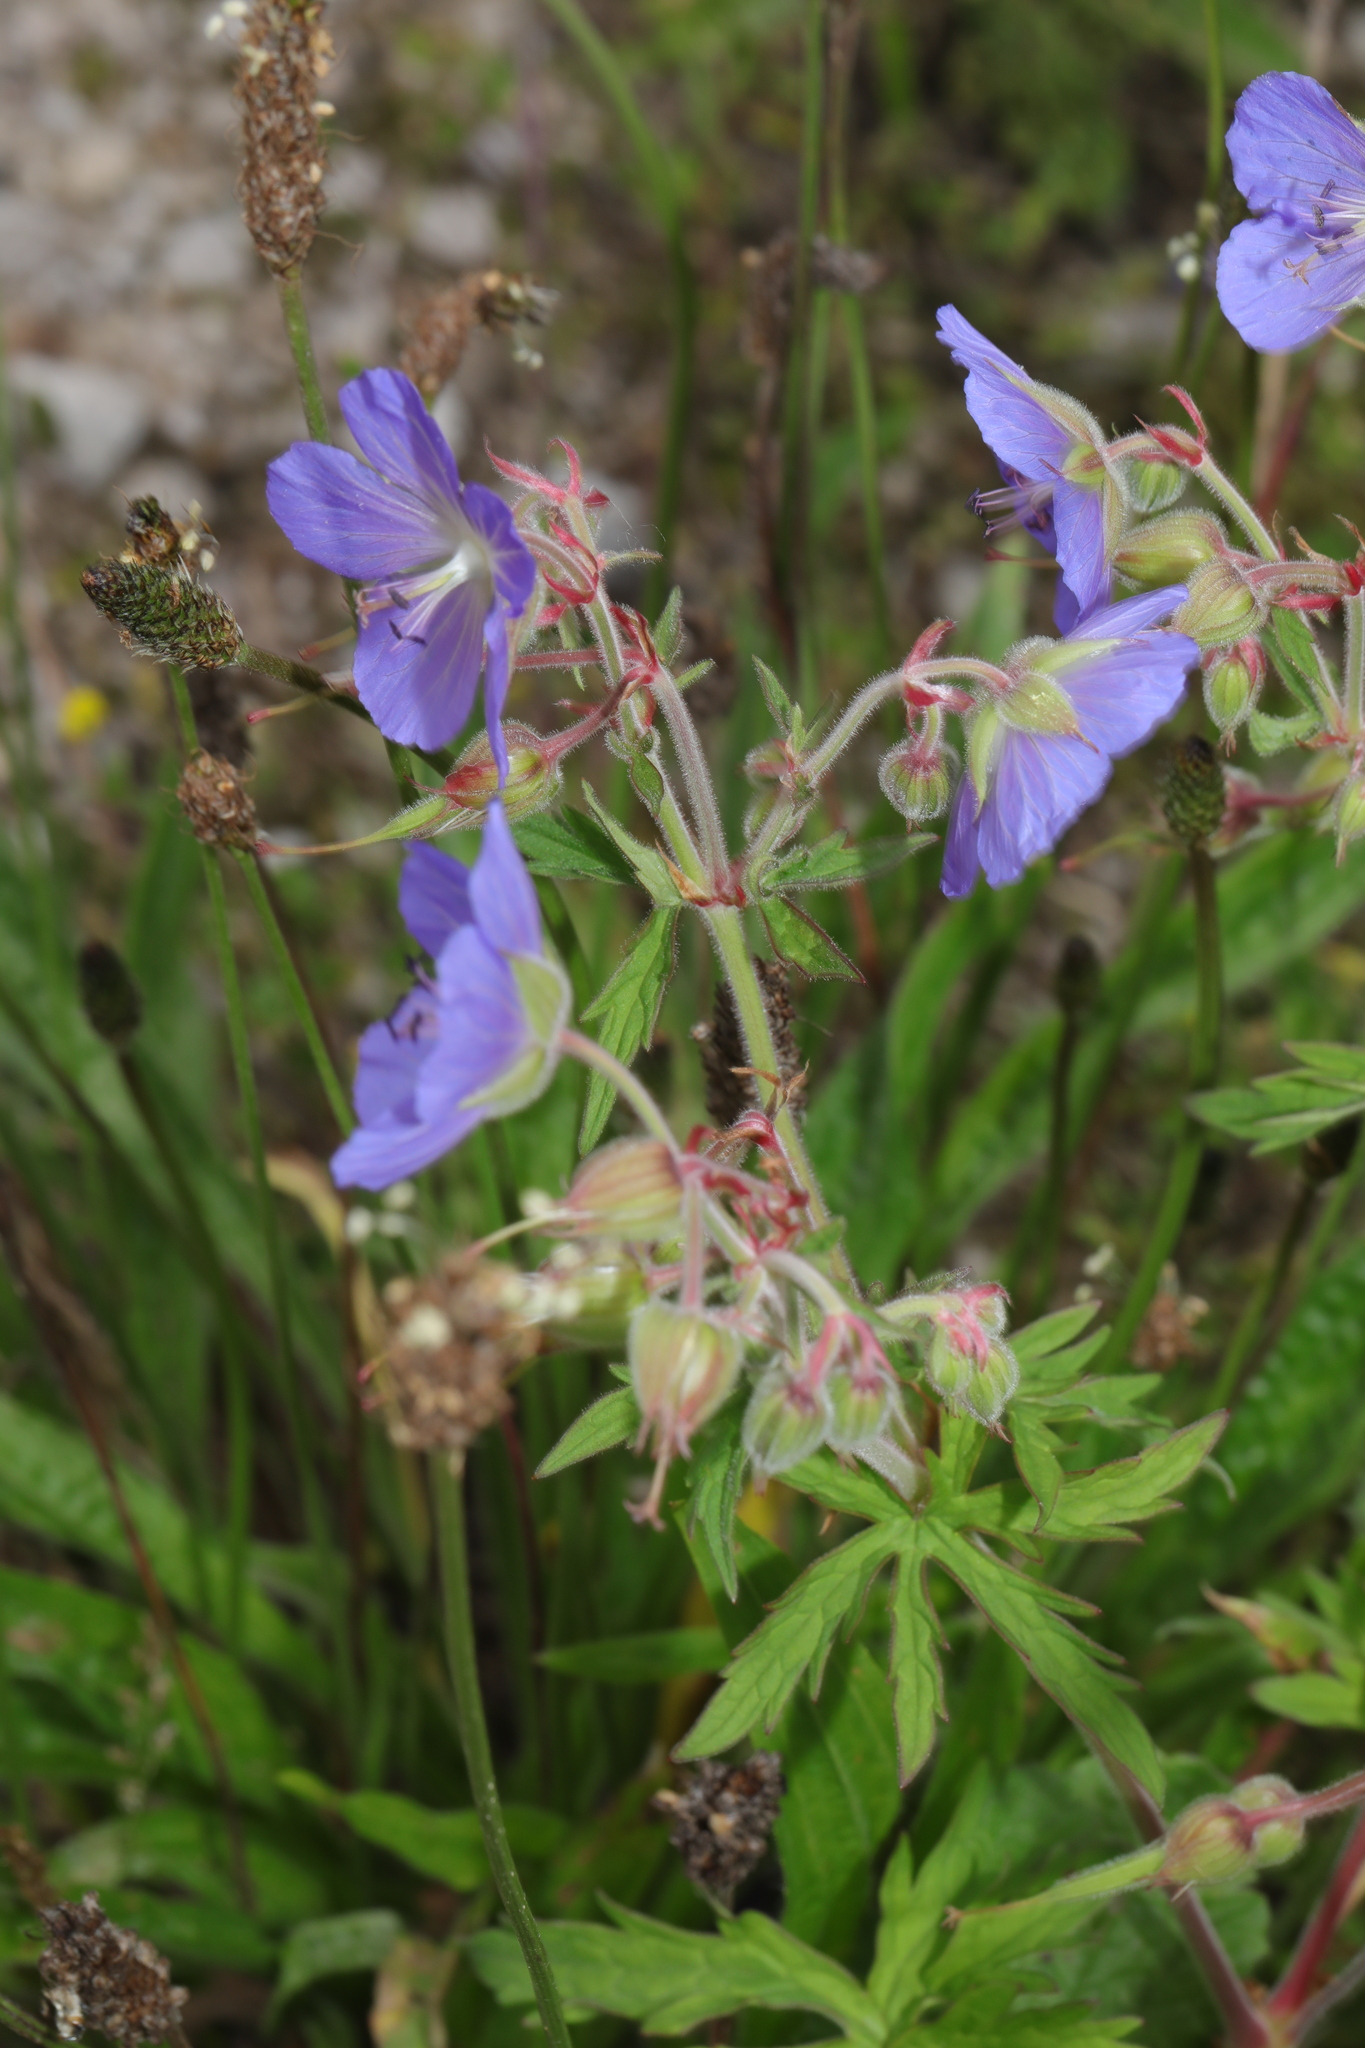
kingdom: Plantae
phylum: Tracheophyta
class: Magnoliopsida
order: Geraniales
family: Geraniaceae
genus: Geranium
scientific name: Geranium pratense
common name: Meadow crane's-bill
